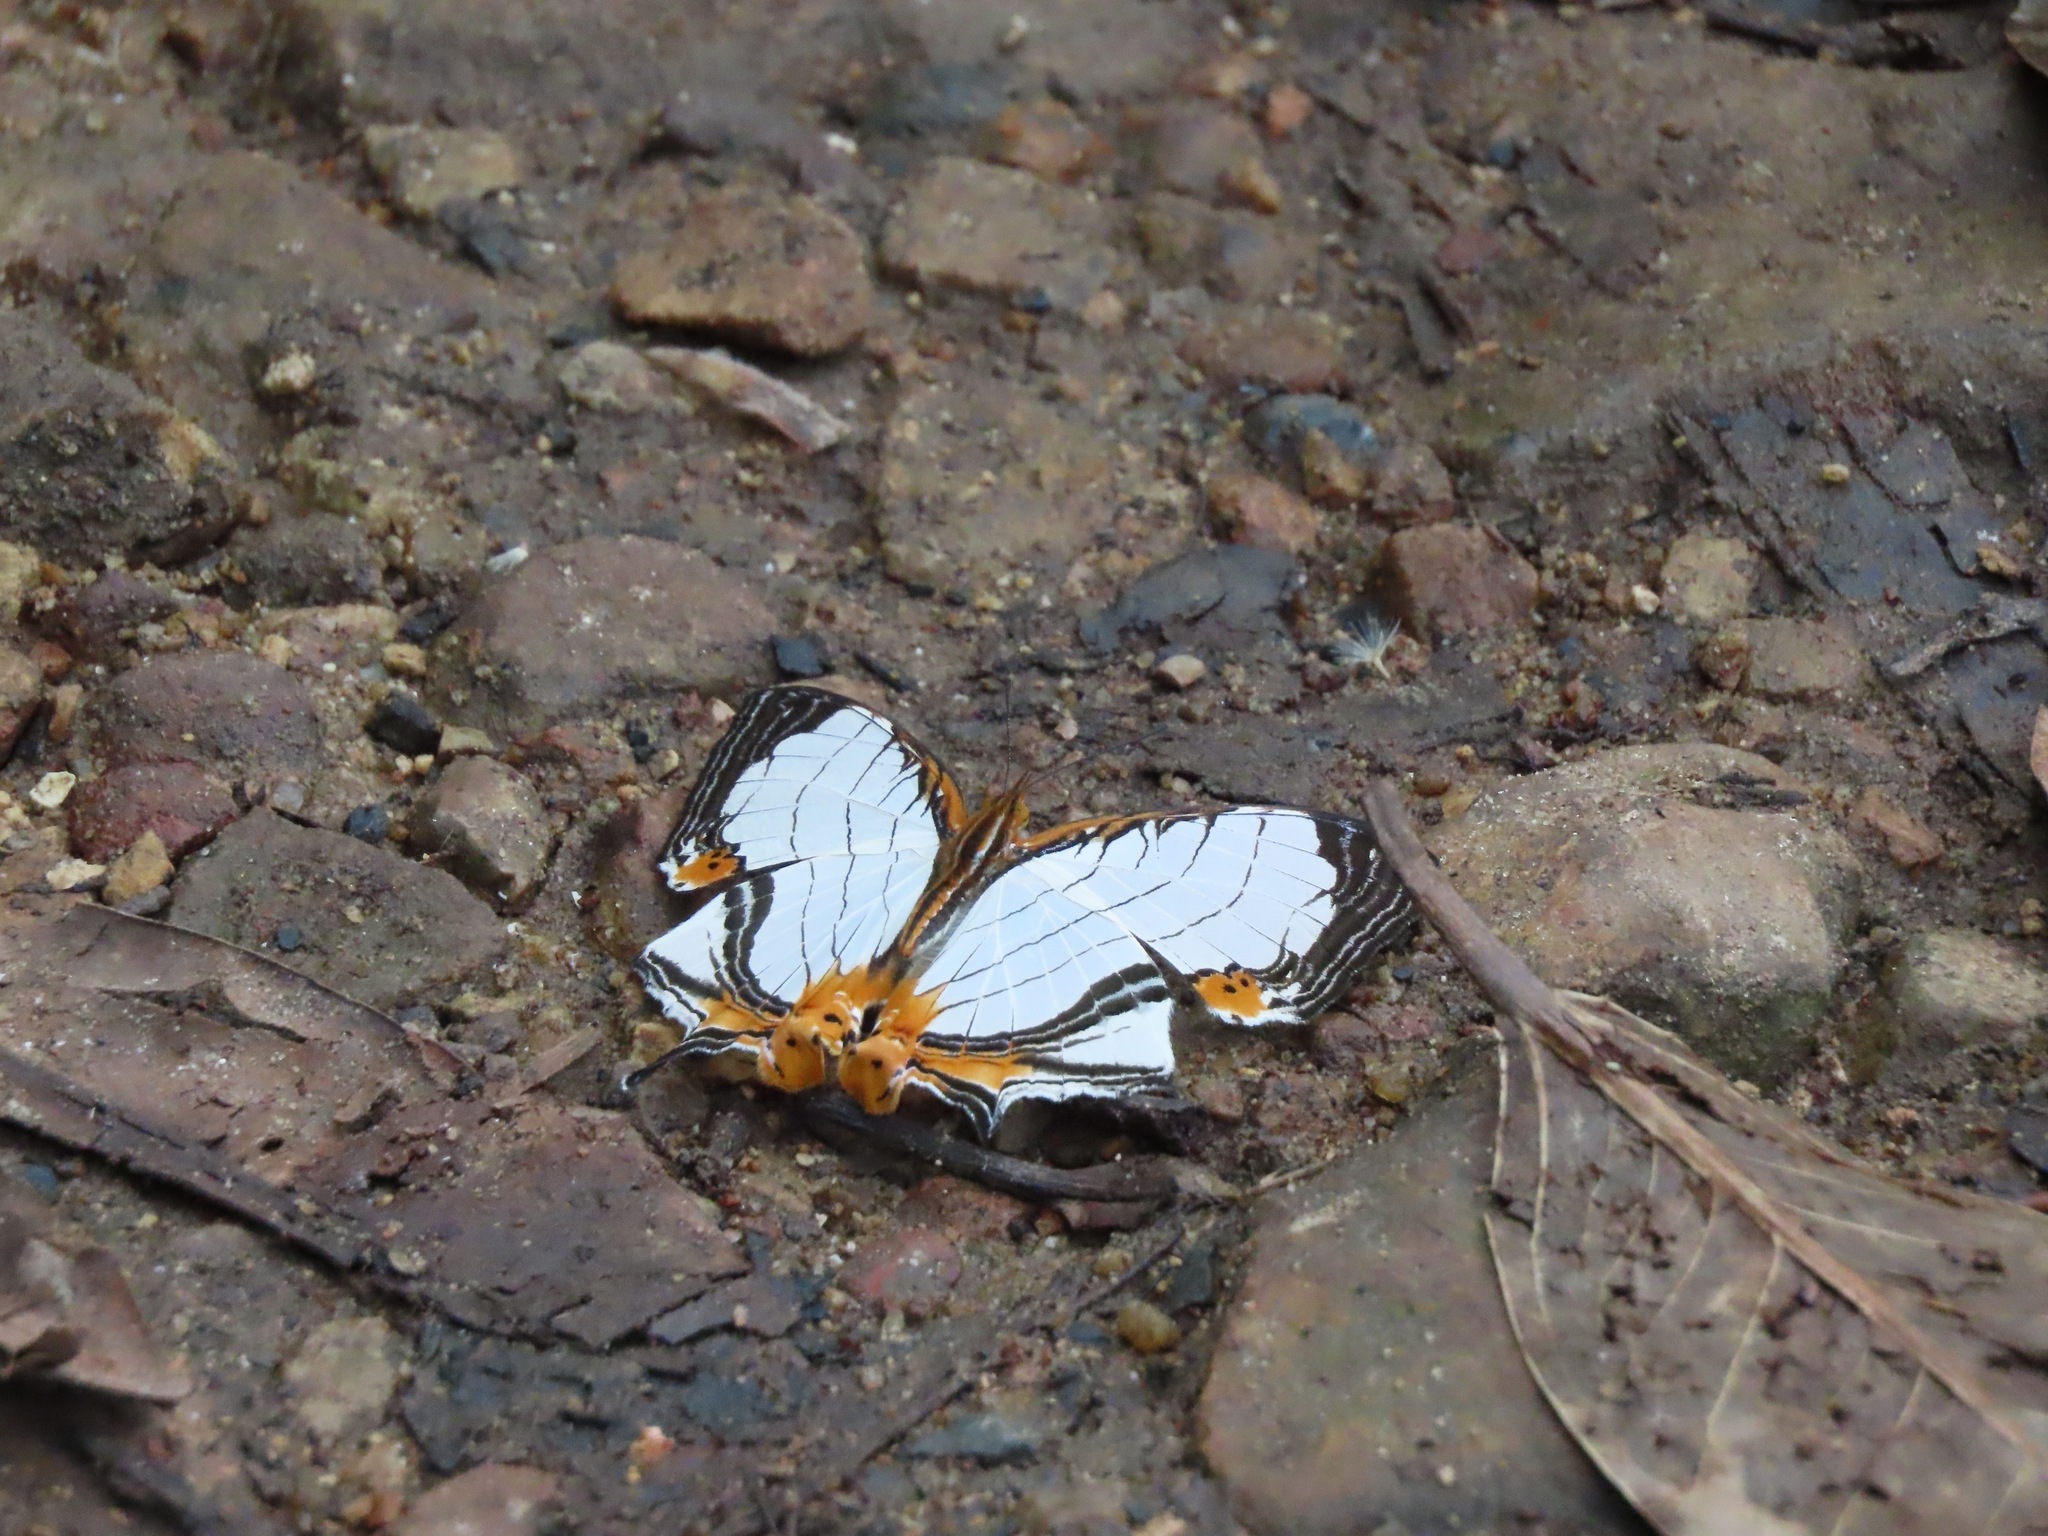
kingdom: Animalia
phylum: Arthropoda
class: Insecta
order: Lepidoptera
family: Nymphalidae
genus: Cyrestis
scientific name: Cyrestis nivea
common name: Straight line mapwing
